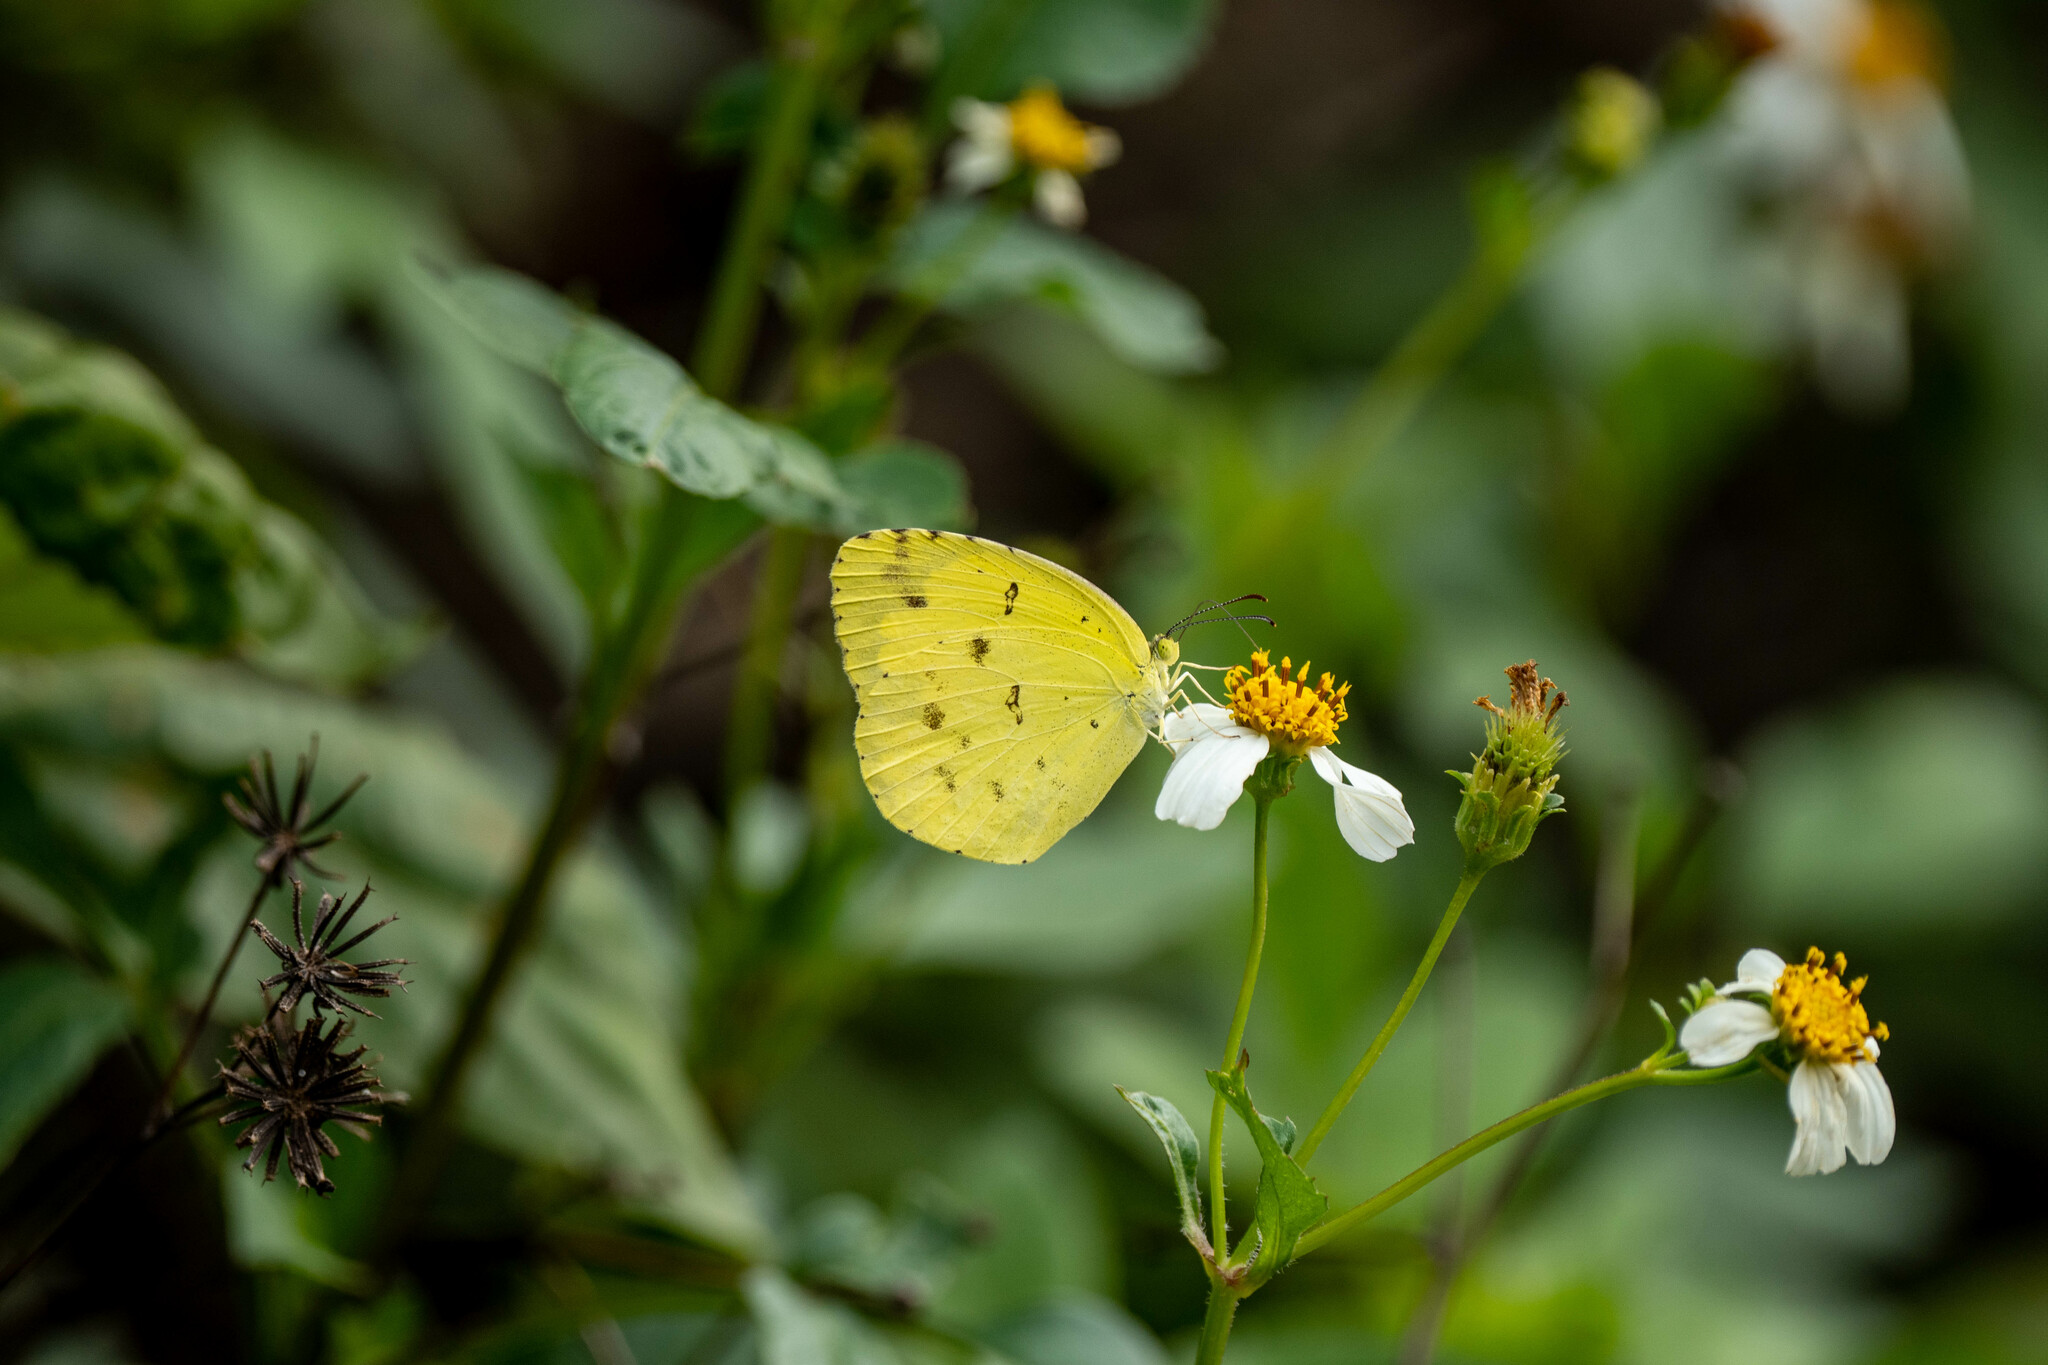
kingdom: Animalia
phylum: Arthropoda
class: Insecta
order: Lepidoptera
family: Pieridae
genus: Eurema
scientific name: Eurema hecabe
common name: Pale grass yellow
